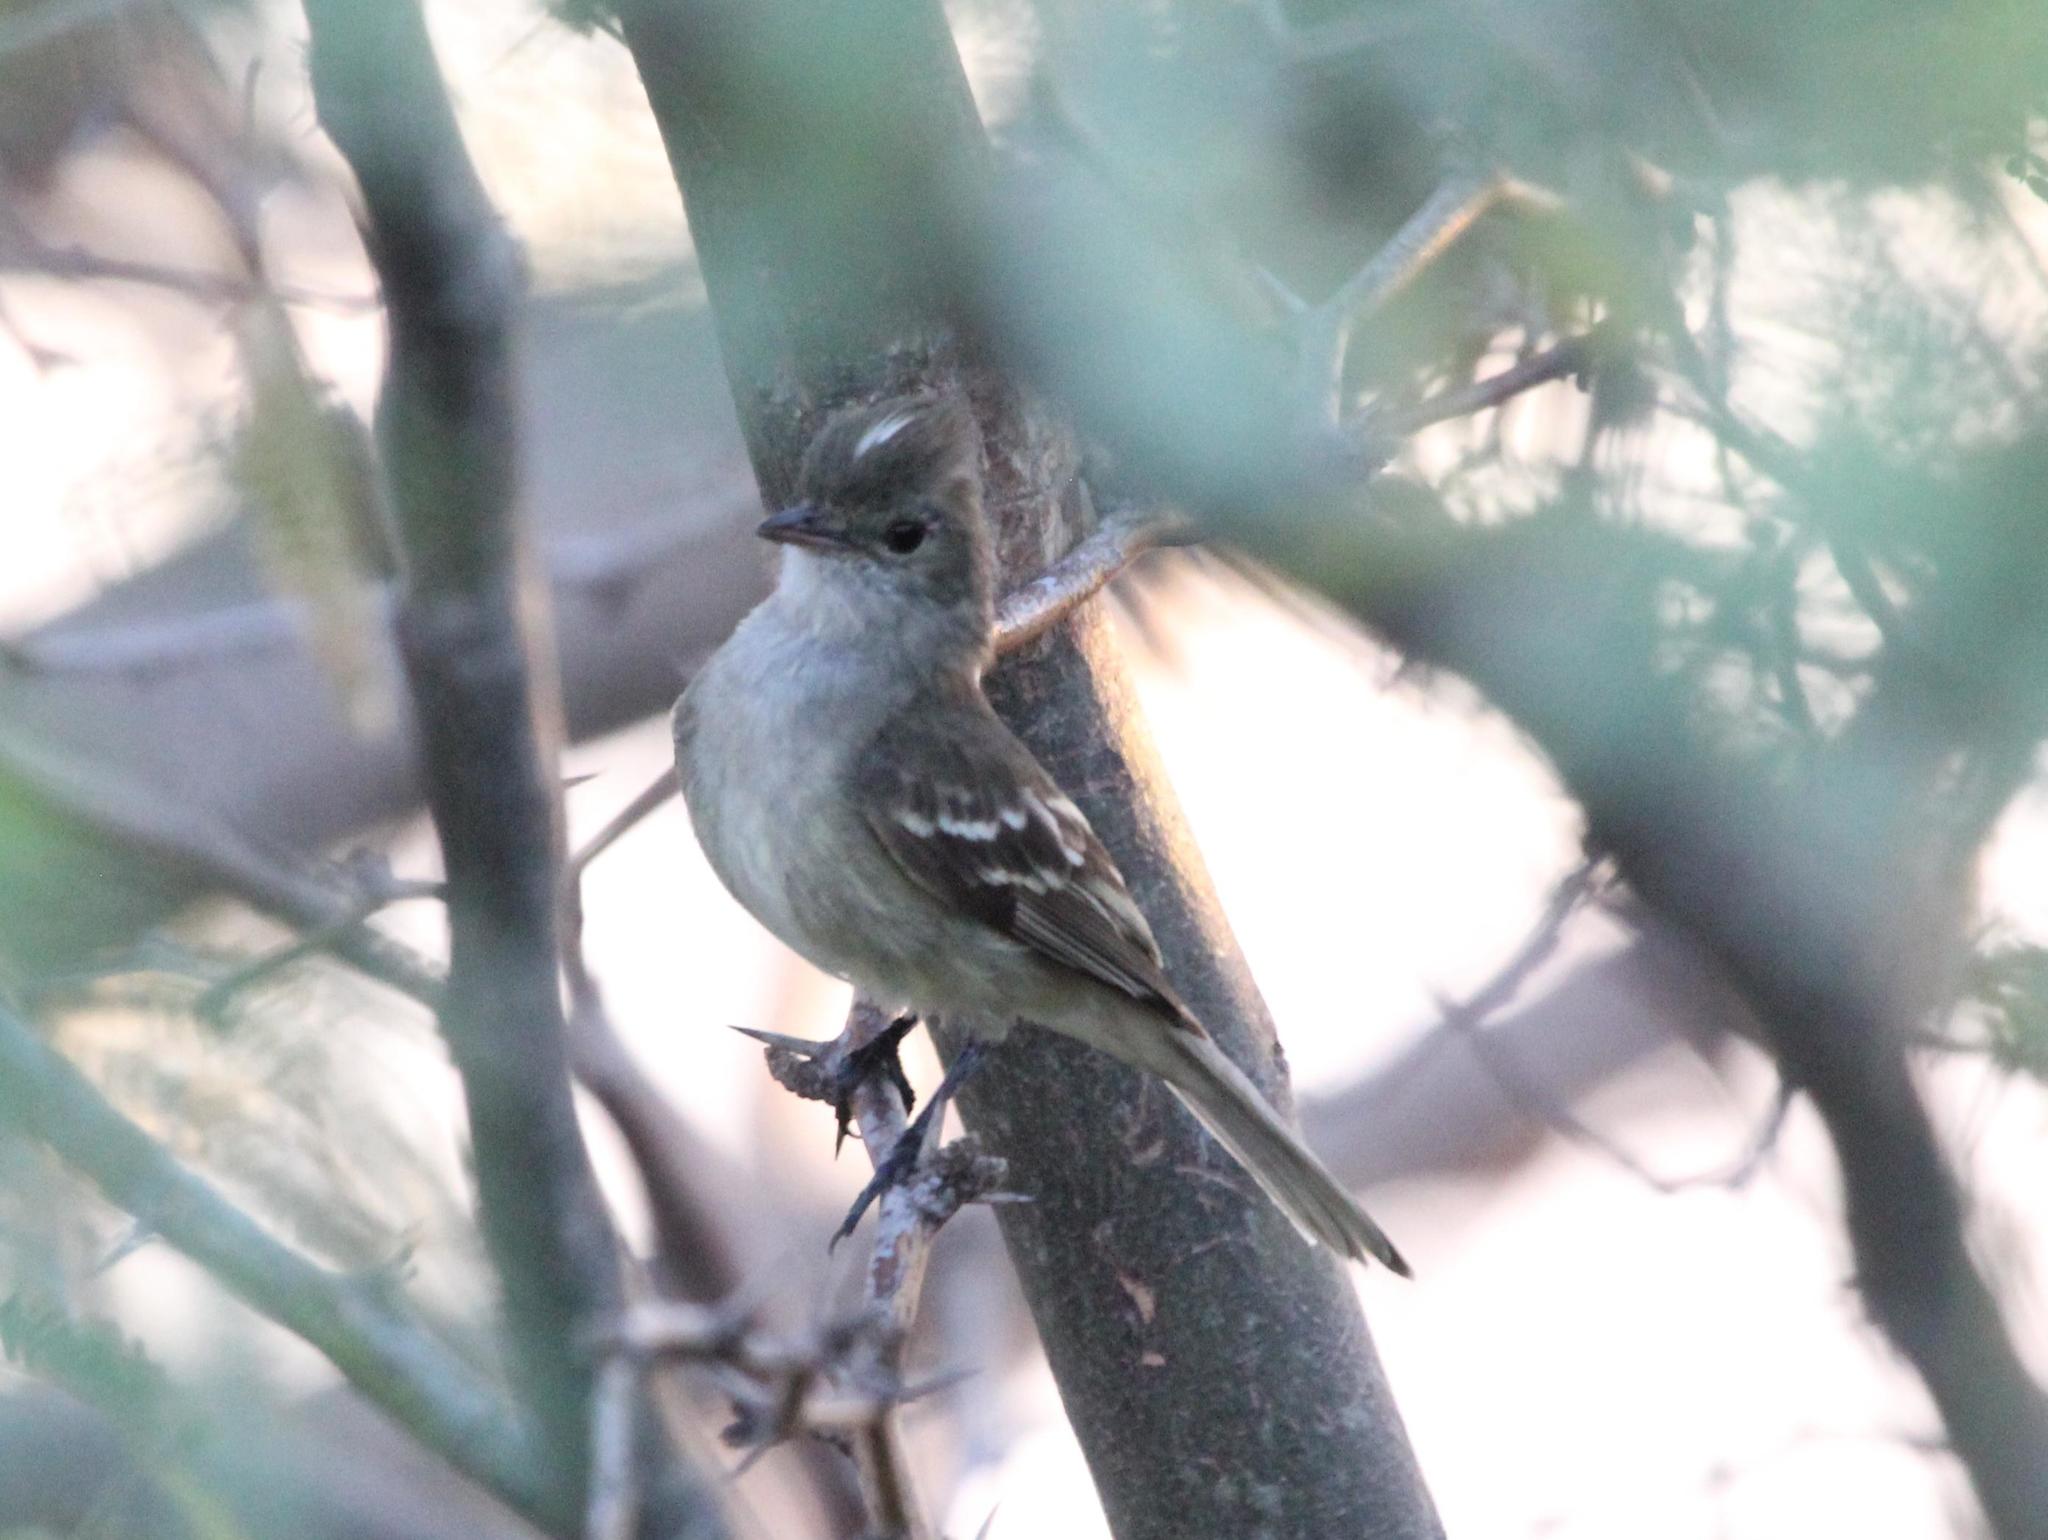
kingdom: Animalia
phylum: Chordata
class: Aves
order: Passeriformes
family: Tyrannidae
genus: Elaenia
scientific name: Elaenia martinica
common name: Caribbean elaenia
